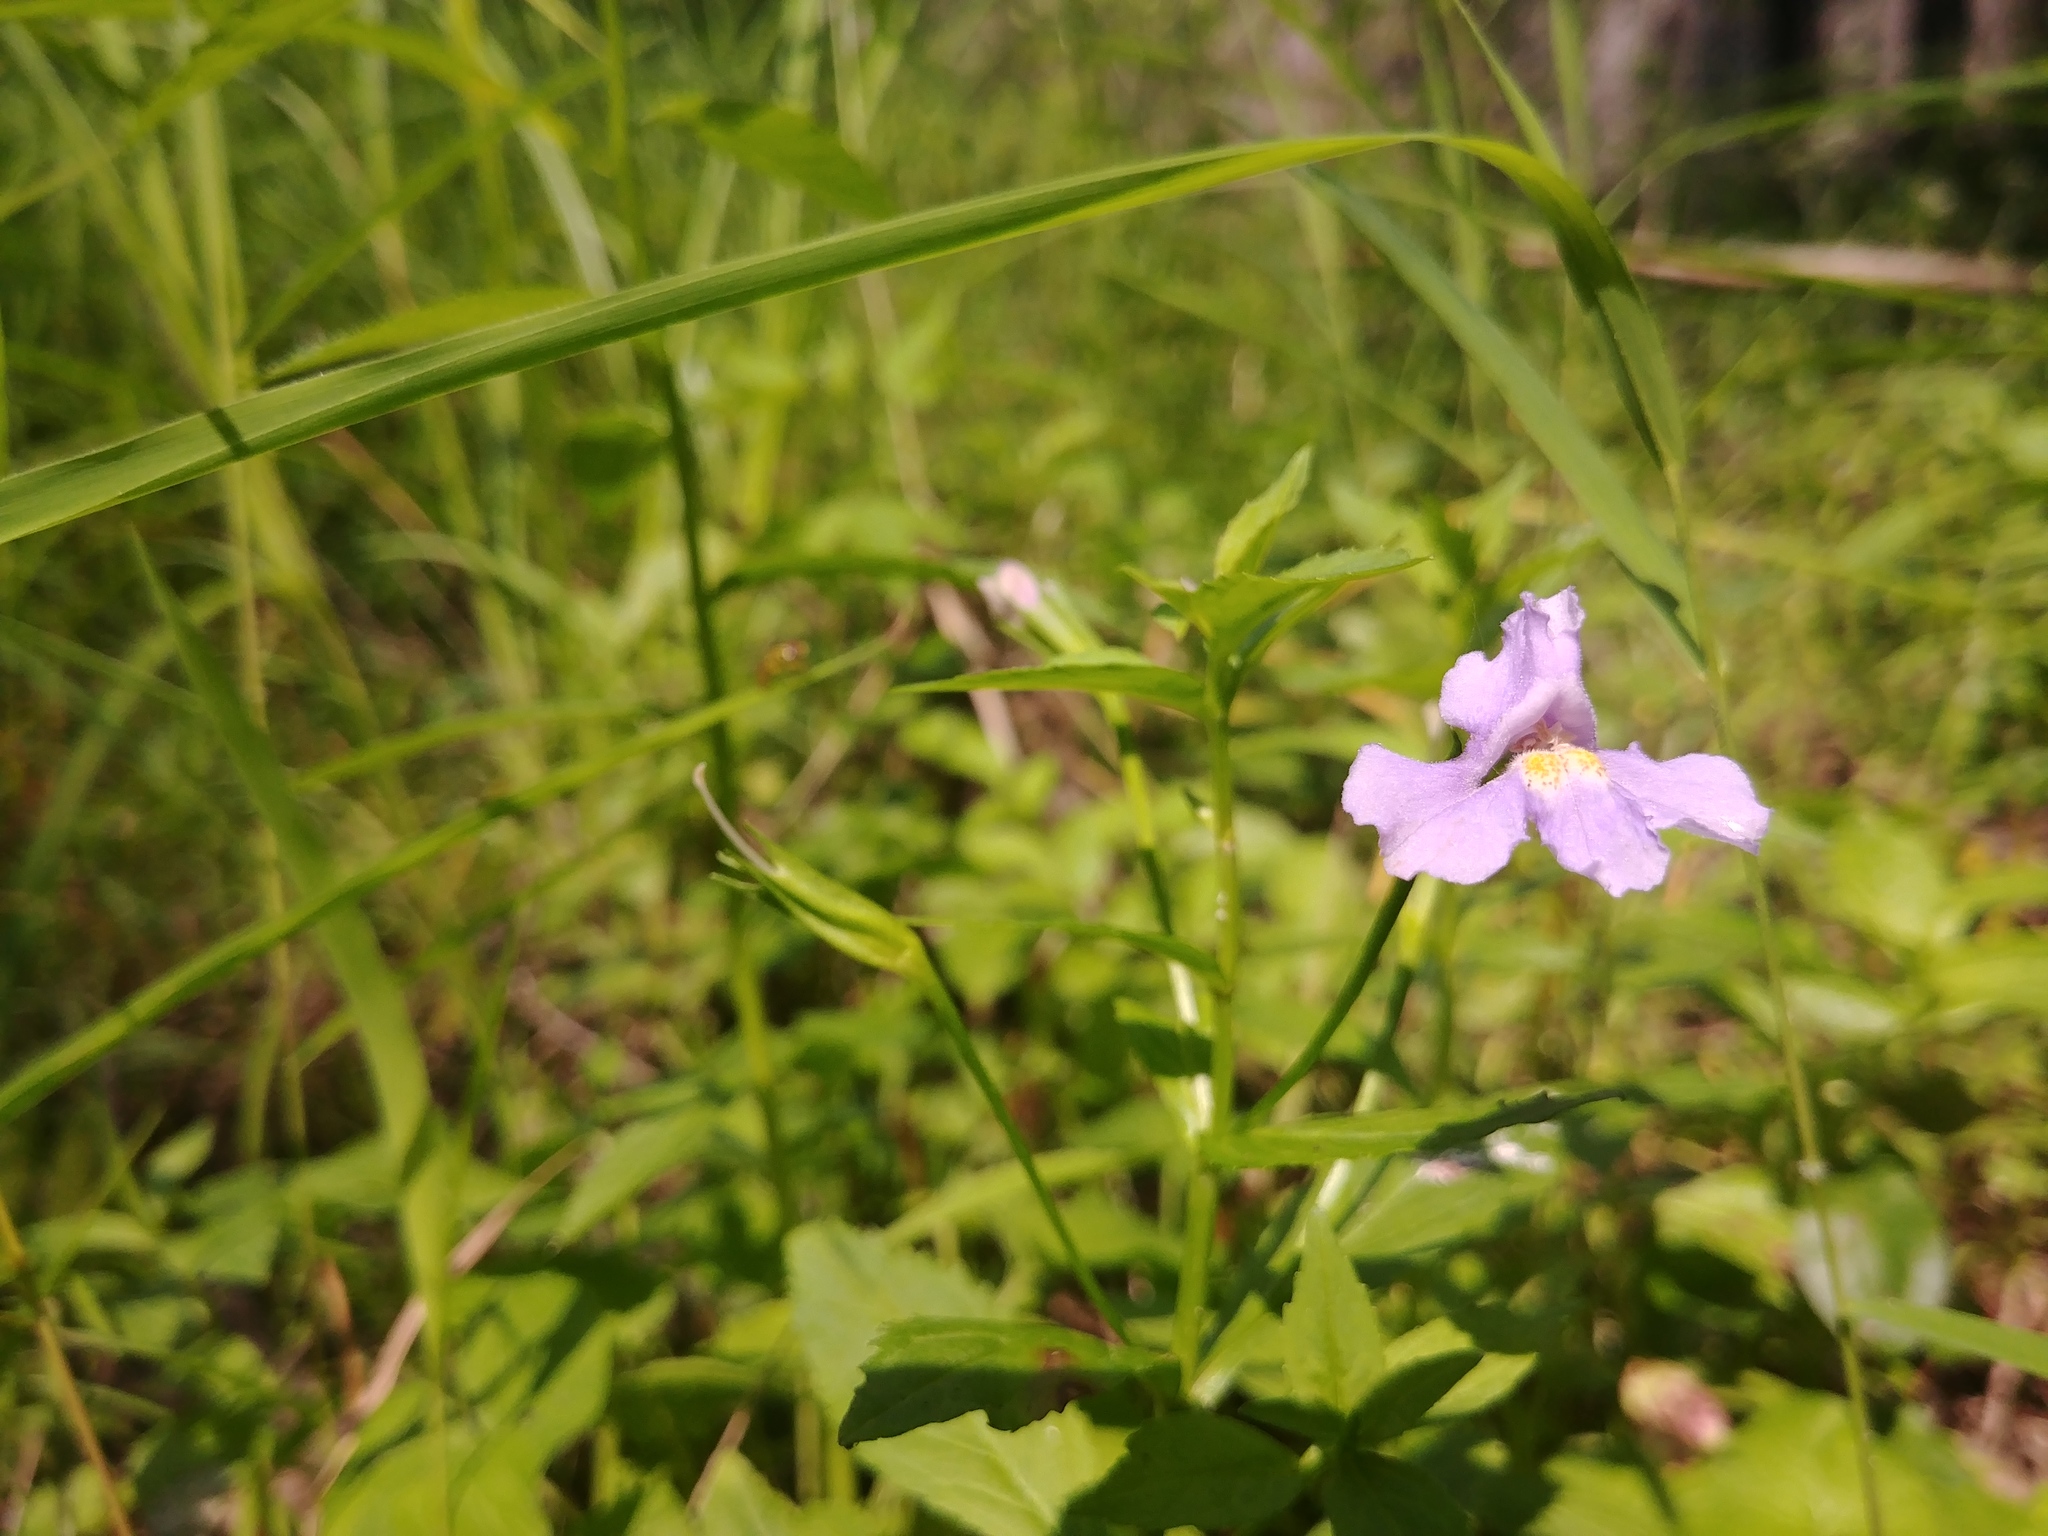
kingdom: Plantae
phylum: Tracheophyta
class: Magnoliopsida
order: Lamiales
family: Phrymaceae
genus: Mimulus
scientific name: Mimulus ringens
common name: Allegheny monkeyflower
